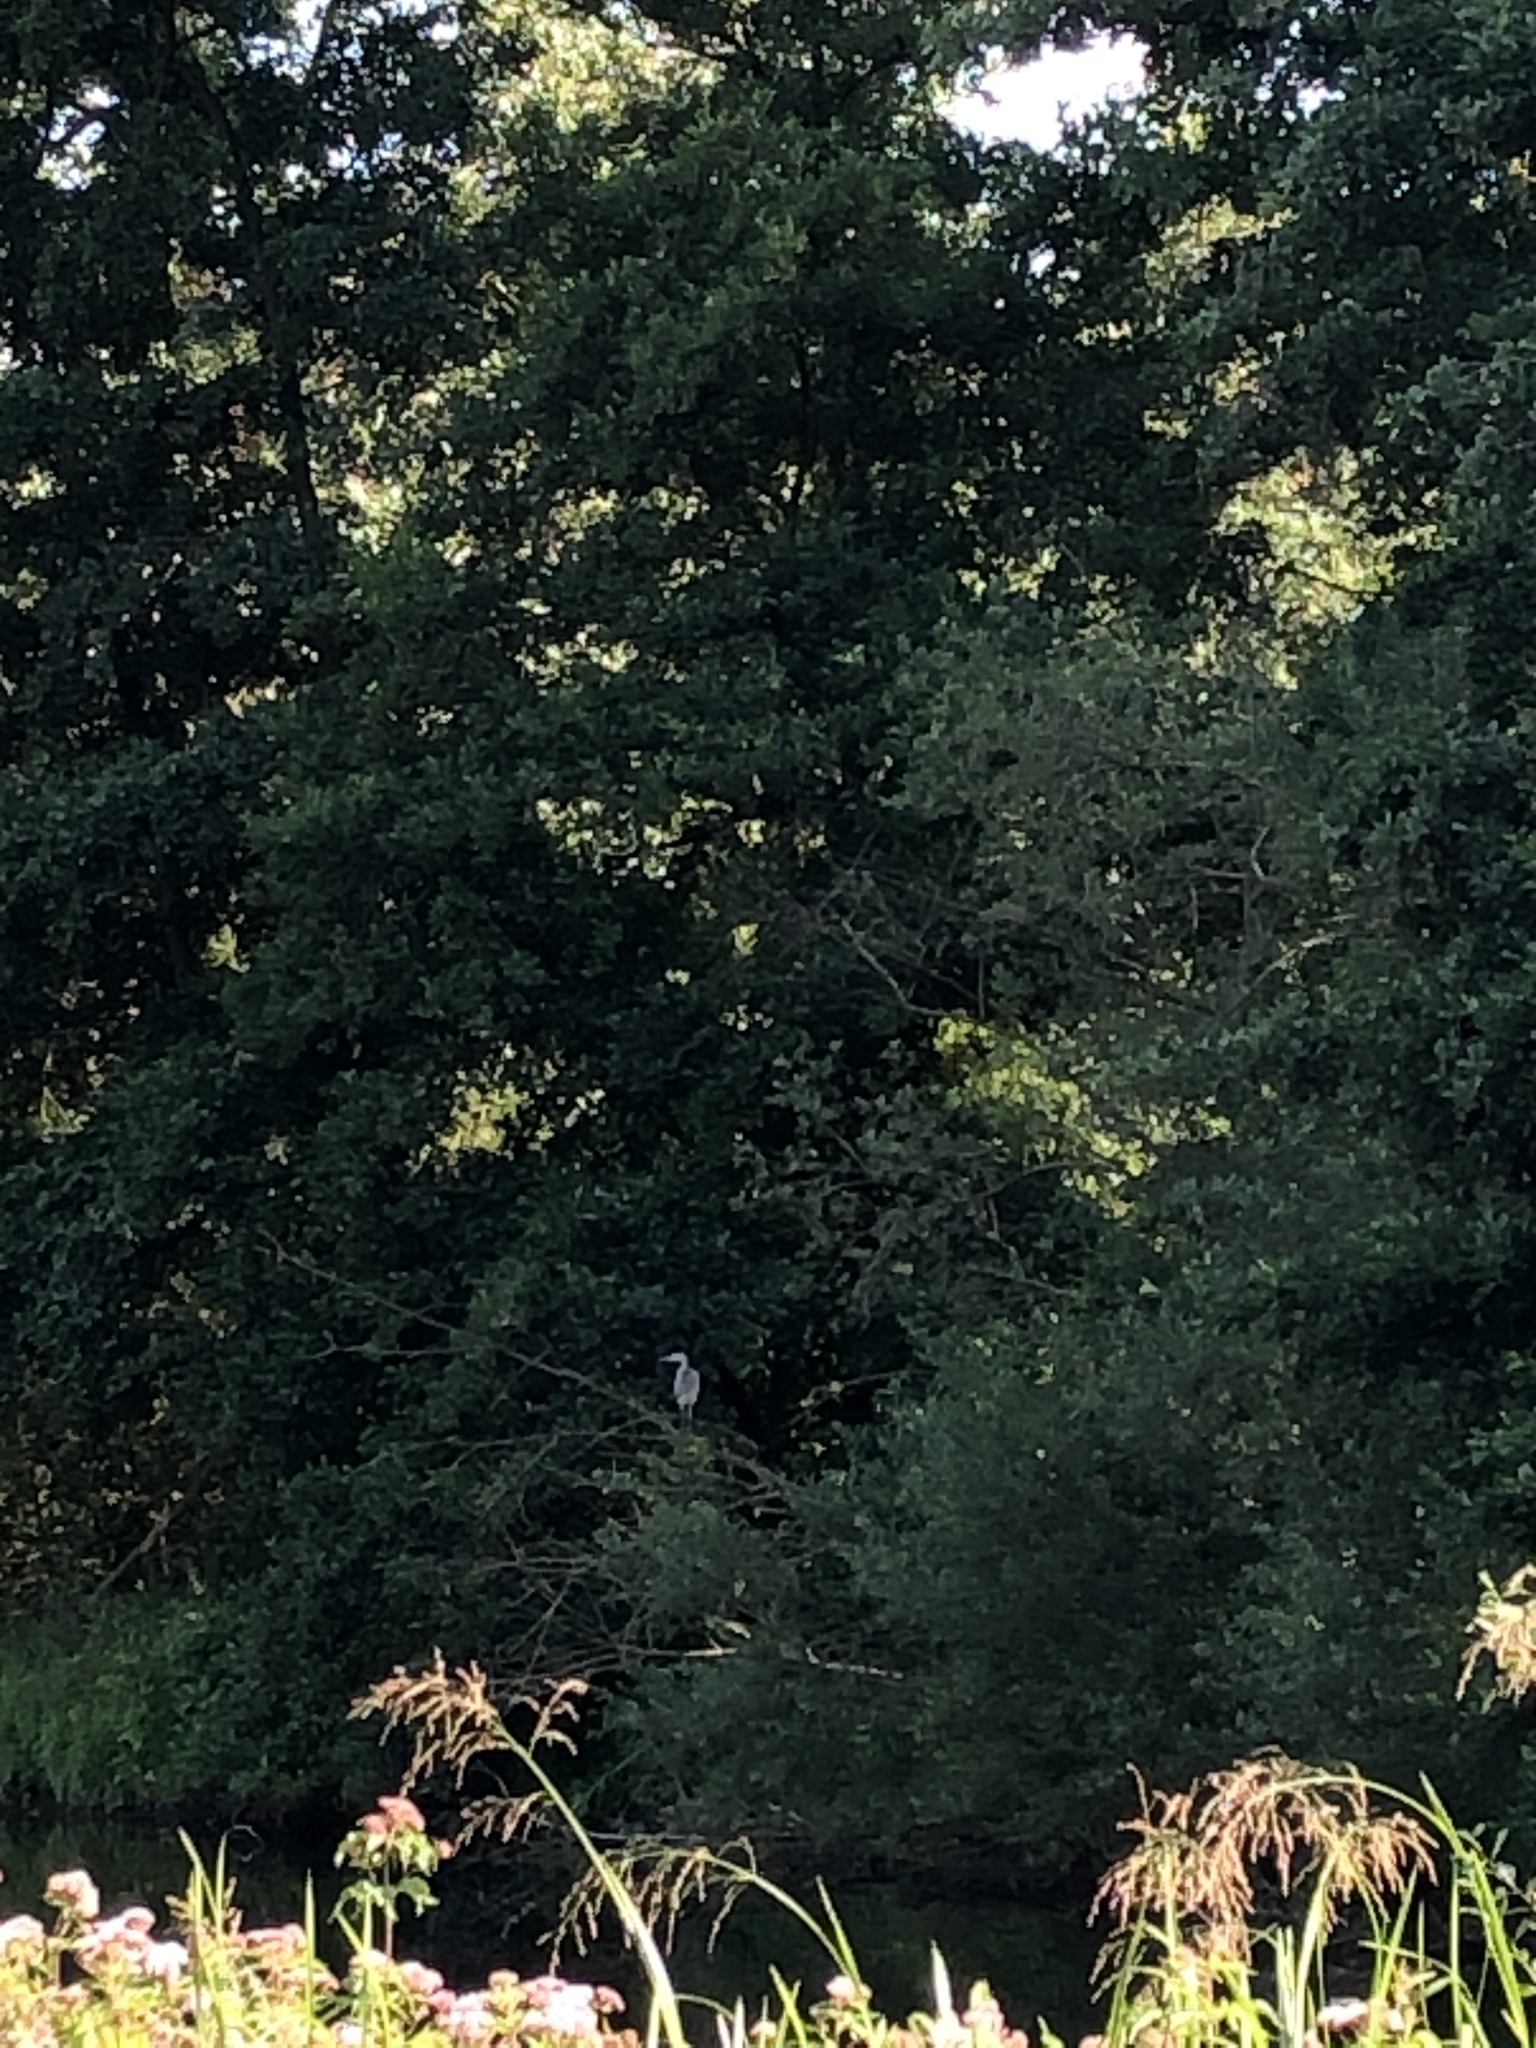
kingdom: Animalia
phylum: Chordata
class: Aves
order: Pelecaniformes
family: Ardeidae
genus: Ardea
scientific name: Ardea cinerea
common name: Grey heron
